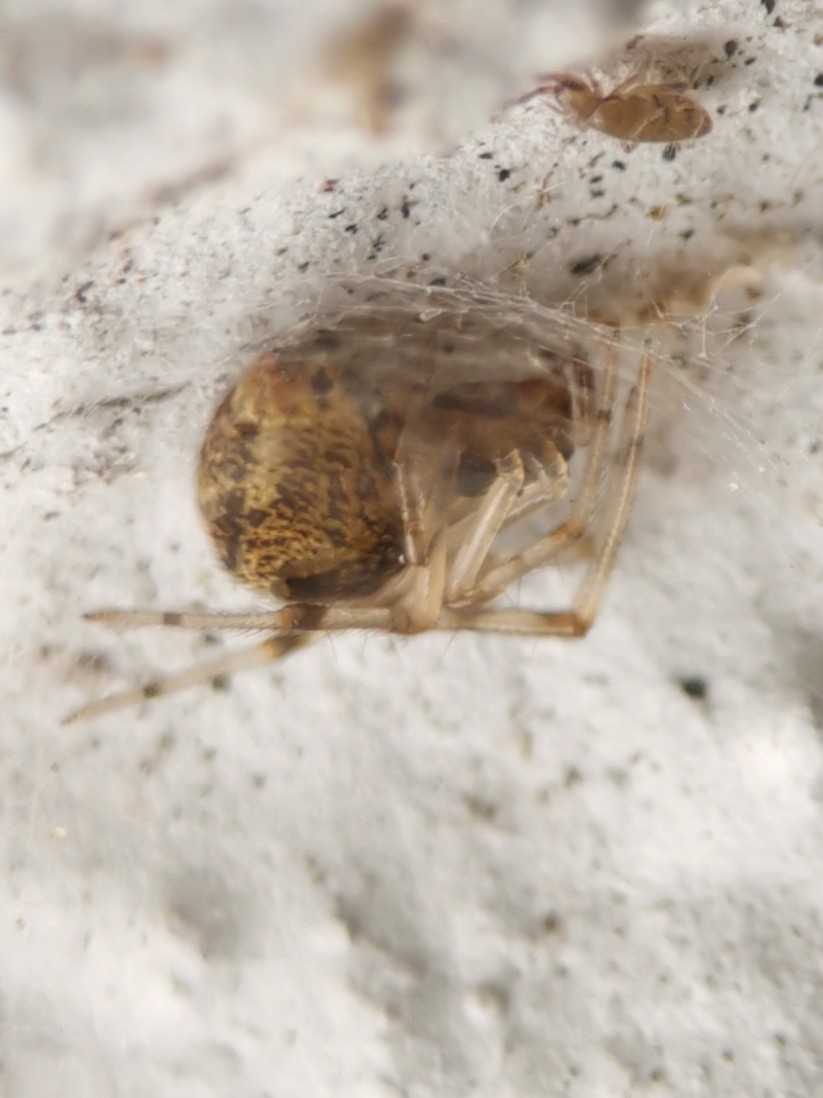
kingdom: Animalia
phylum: Arthropoda
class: Arachnida
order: Araneae
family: Theridiidae
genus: Parasteatoda
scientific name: Parasteatoda tepidariorum
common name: Common house spider
